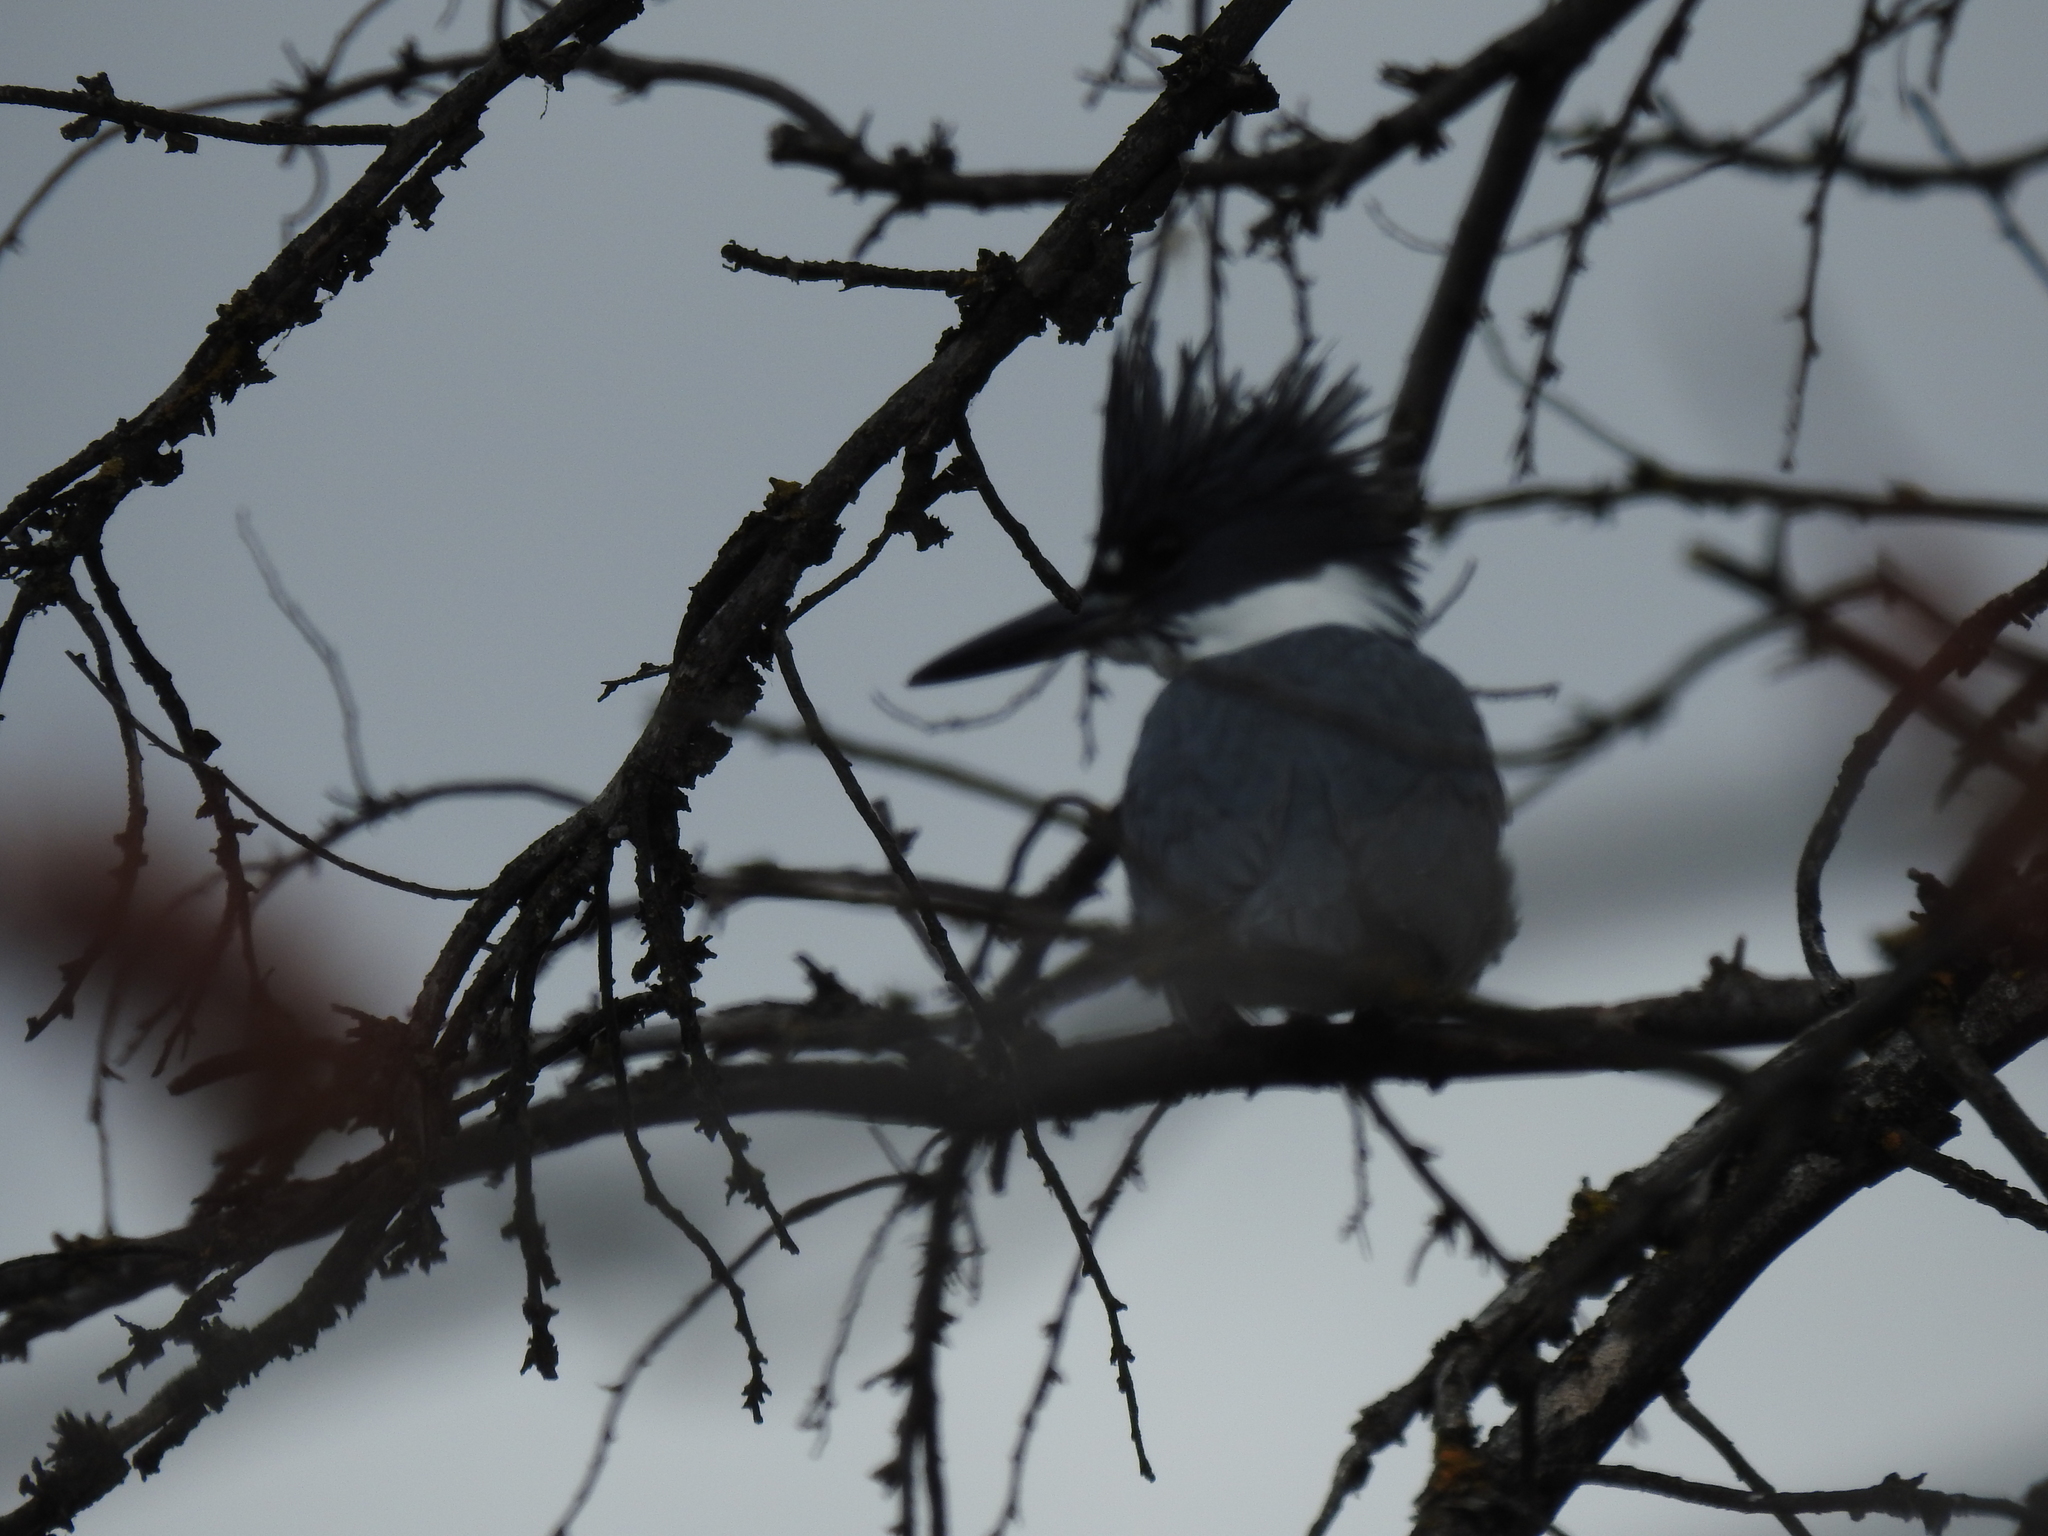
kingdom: Animalia
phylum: Chordata
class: Aves
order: Coraciiformes
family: Alcedinidae
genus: Megaceryle
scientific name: Megaceryle alcyon
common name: Belted kingfisher
